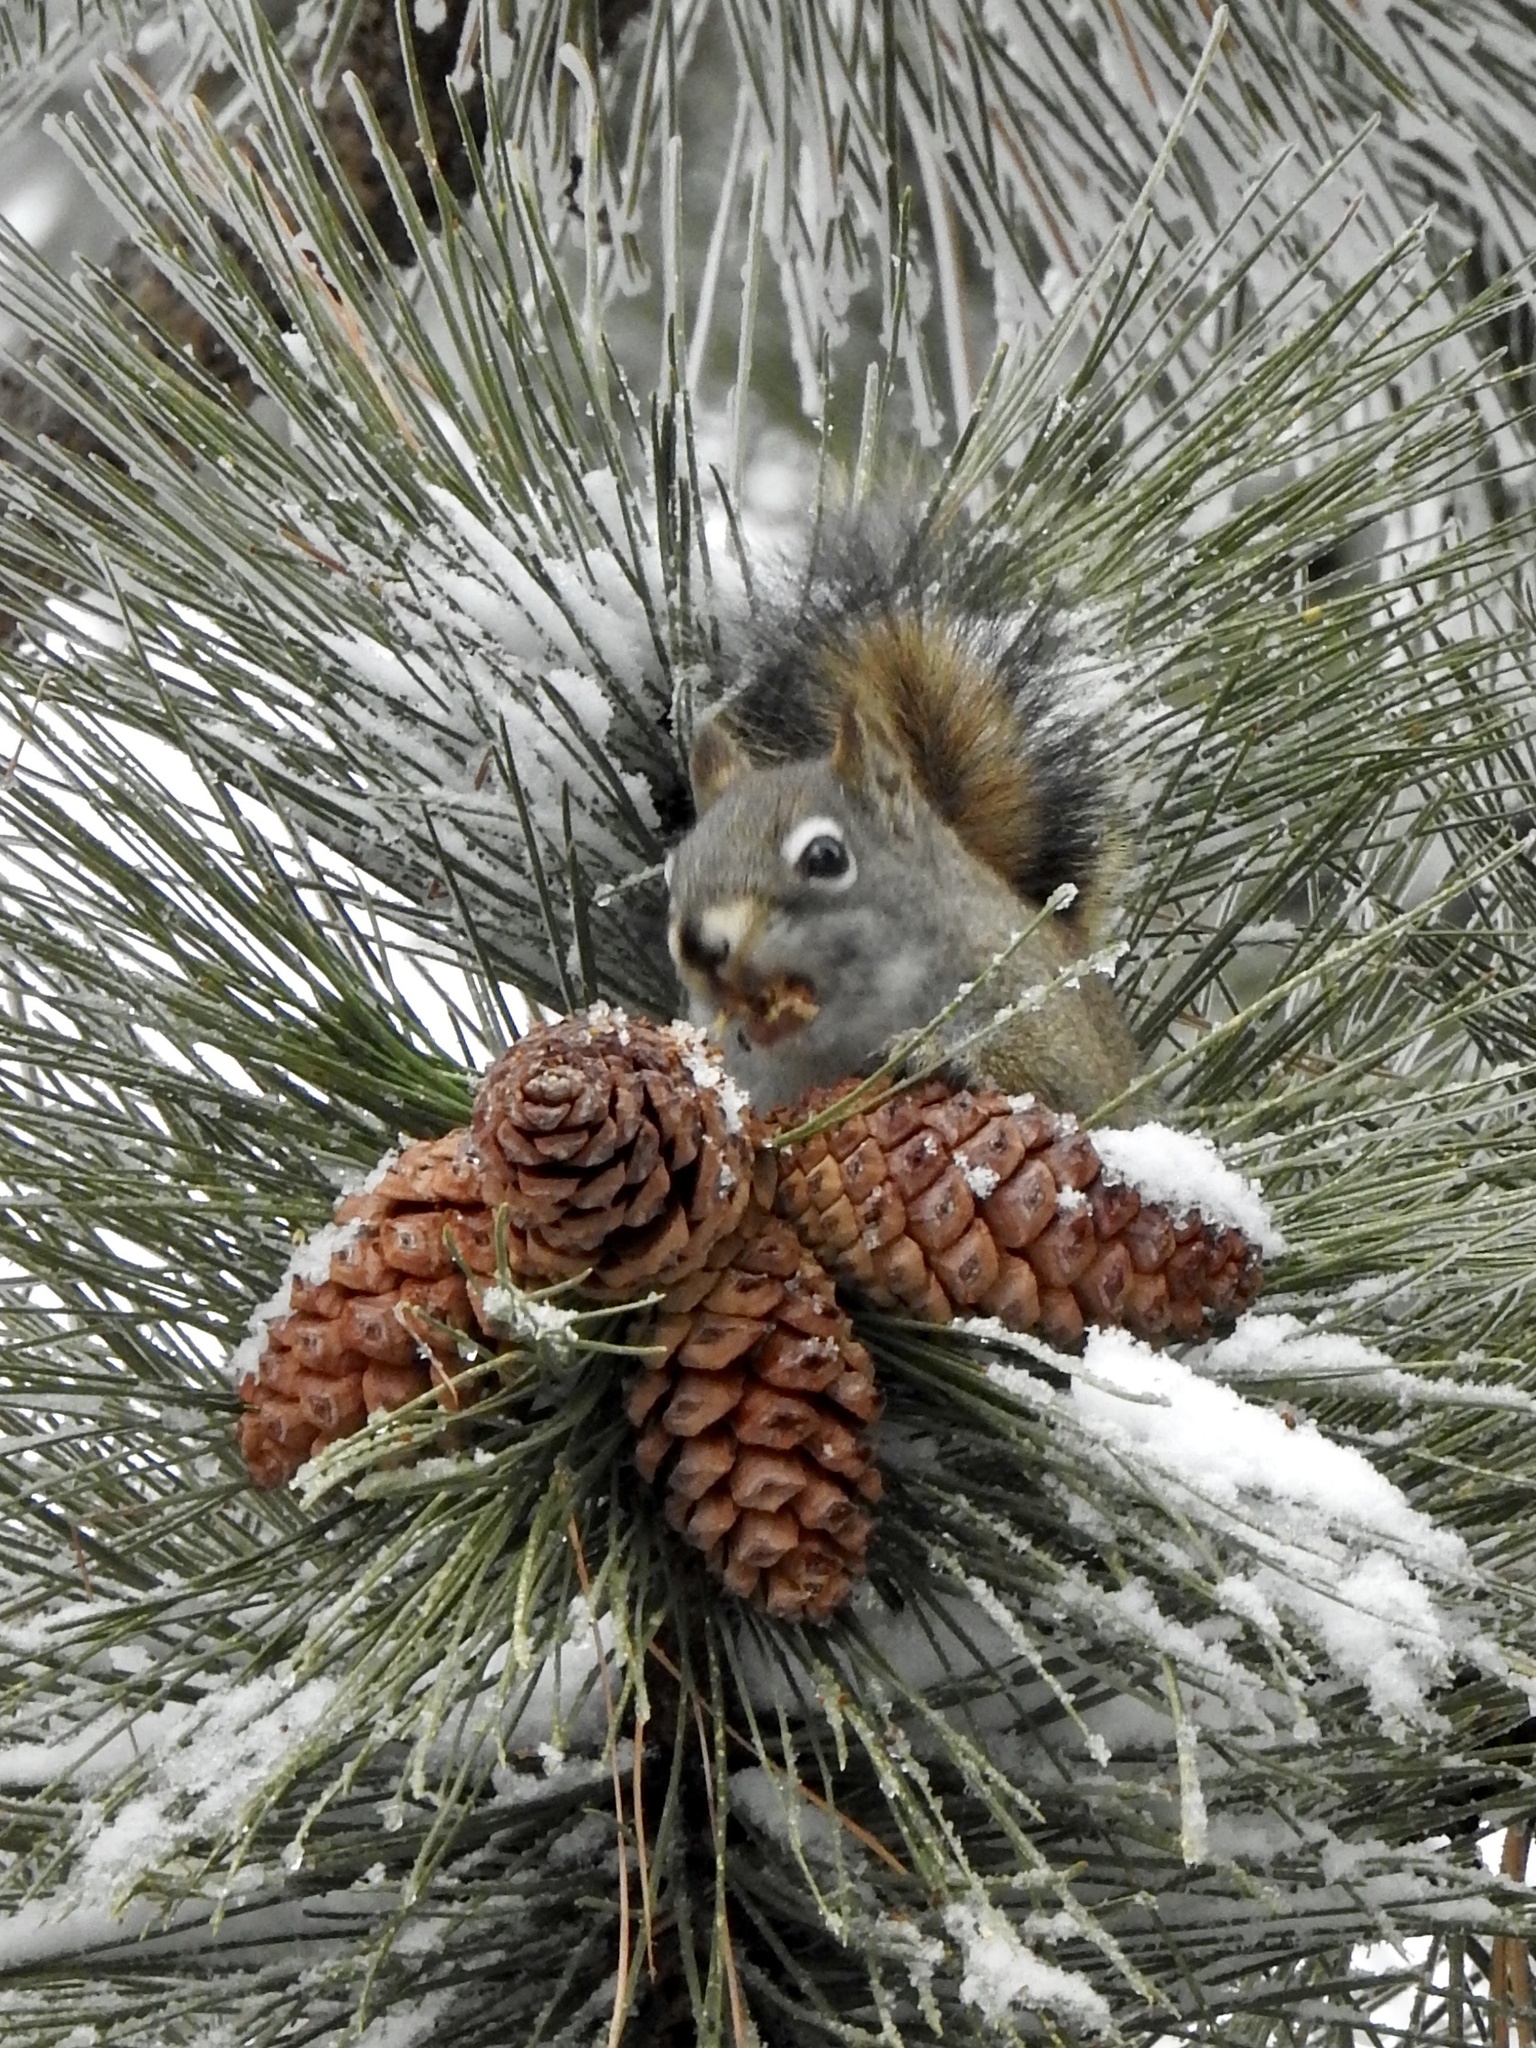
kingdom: Animalia
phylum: Chordata
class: Mammalia
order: Rodentia
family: Sciuridae
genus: Tamiasciurus
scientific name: Tamiasciurus hudsonicus
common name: Red squirrel
